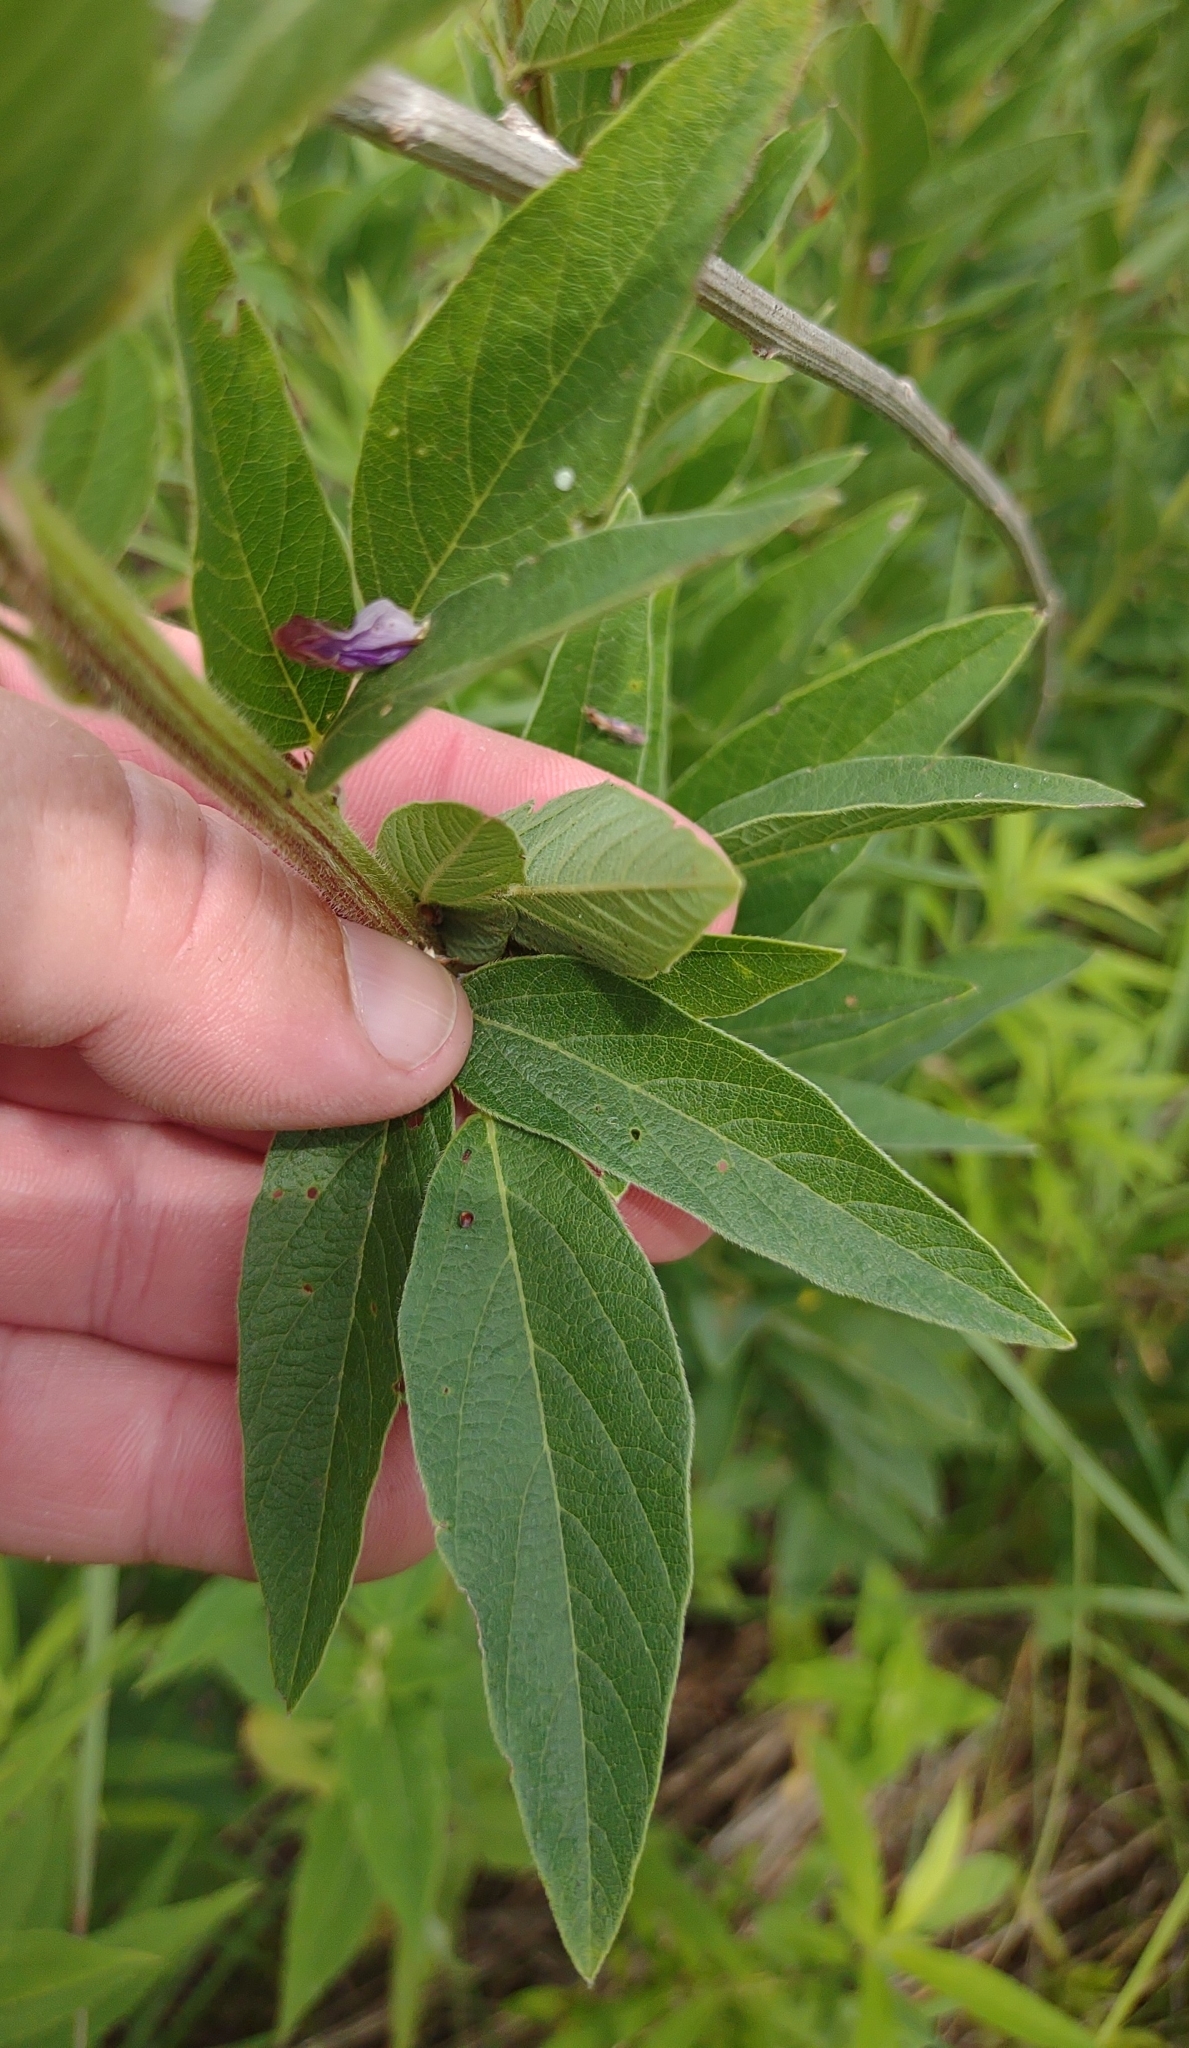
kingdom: Plantae
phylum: Tracheophyta
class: Magnoliopsida
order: Fabales
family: Fabaceae
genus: Desmodium
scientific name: Desmodium canadense
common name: Canada tick-trefoil
